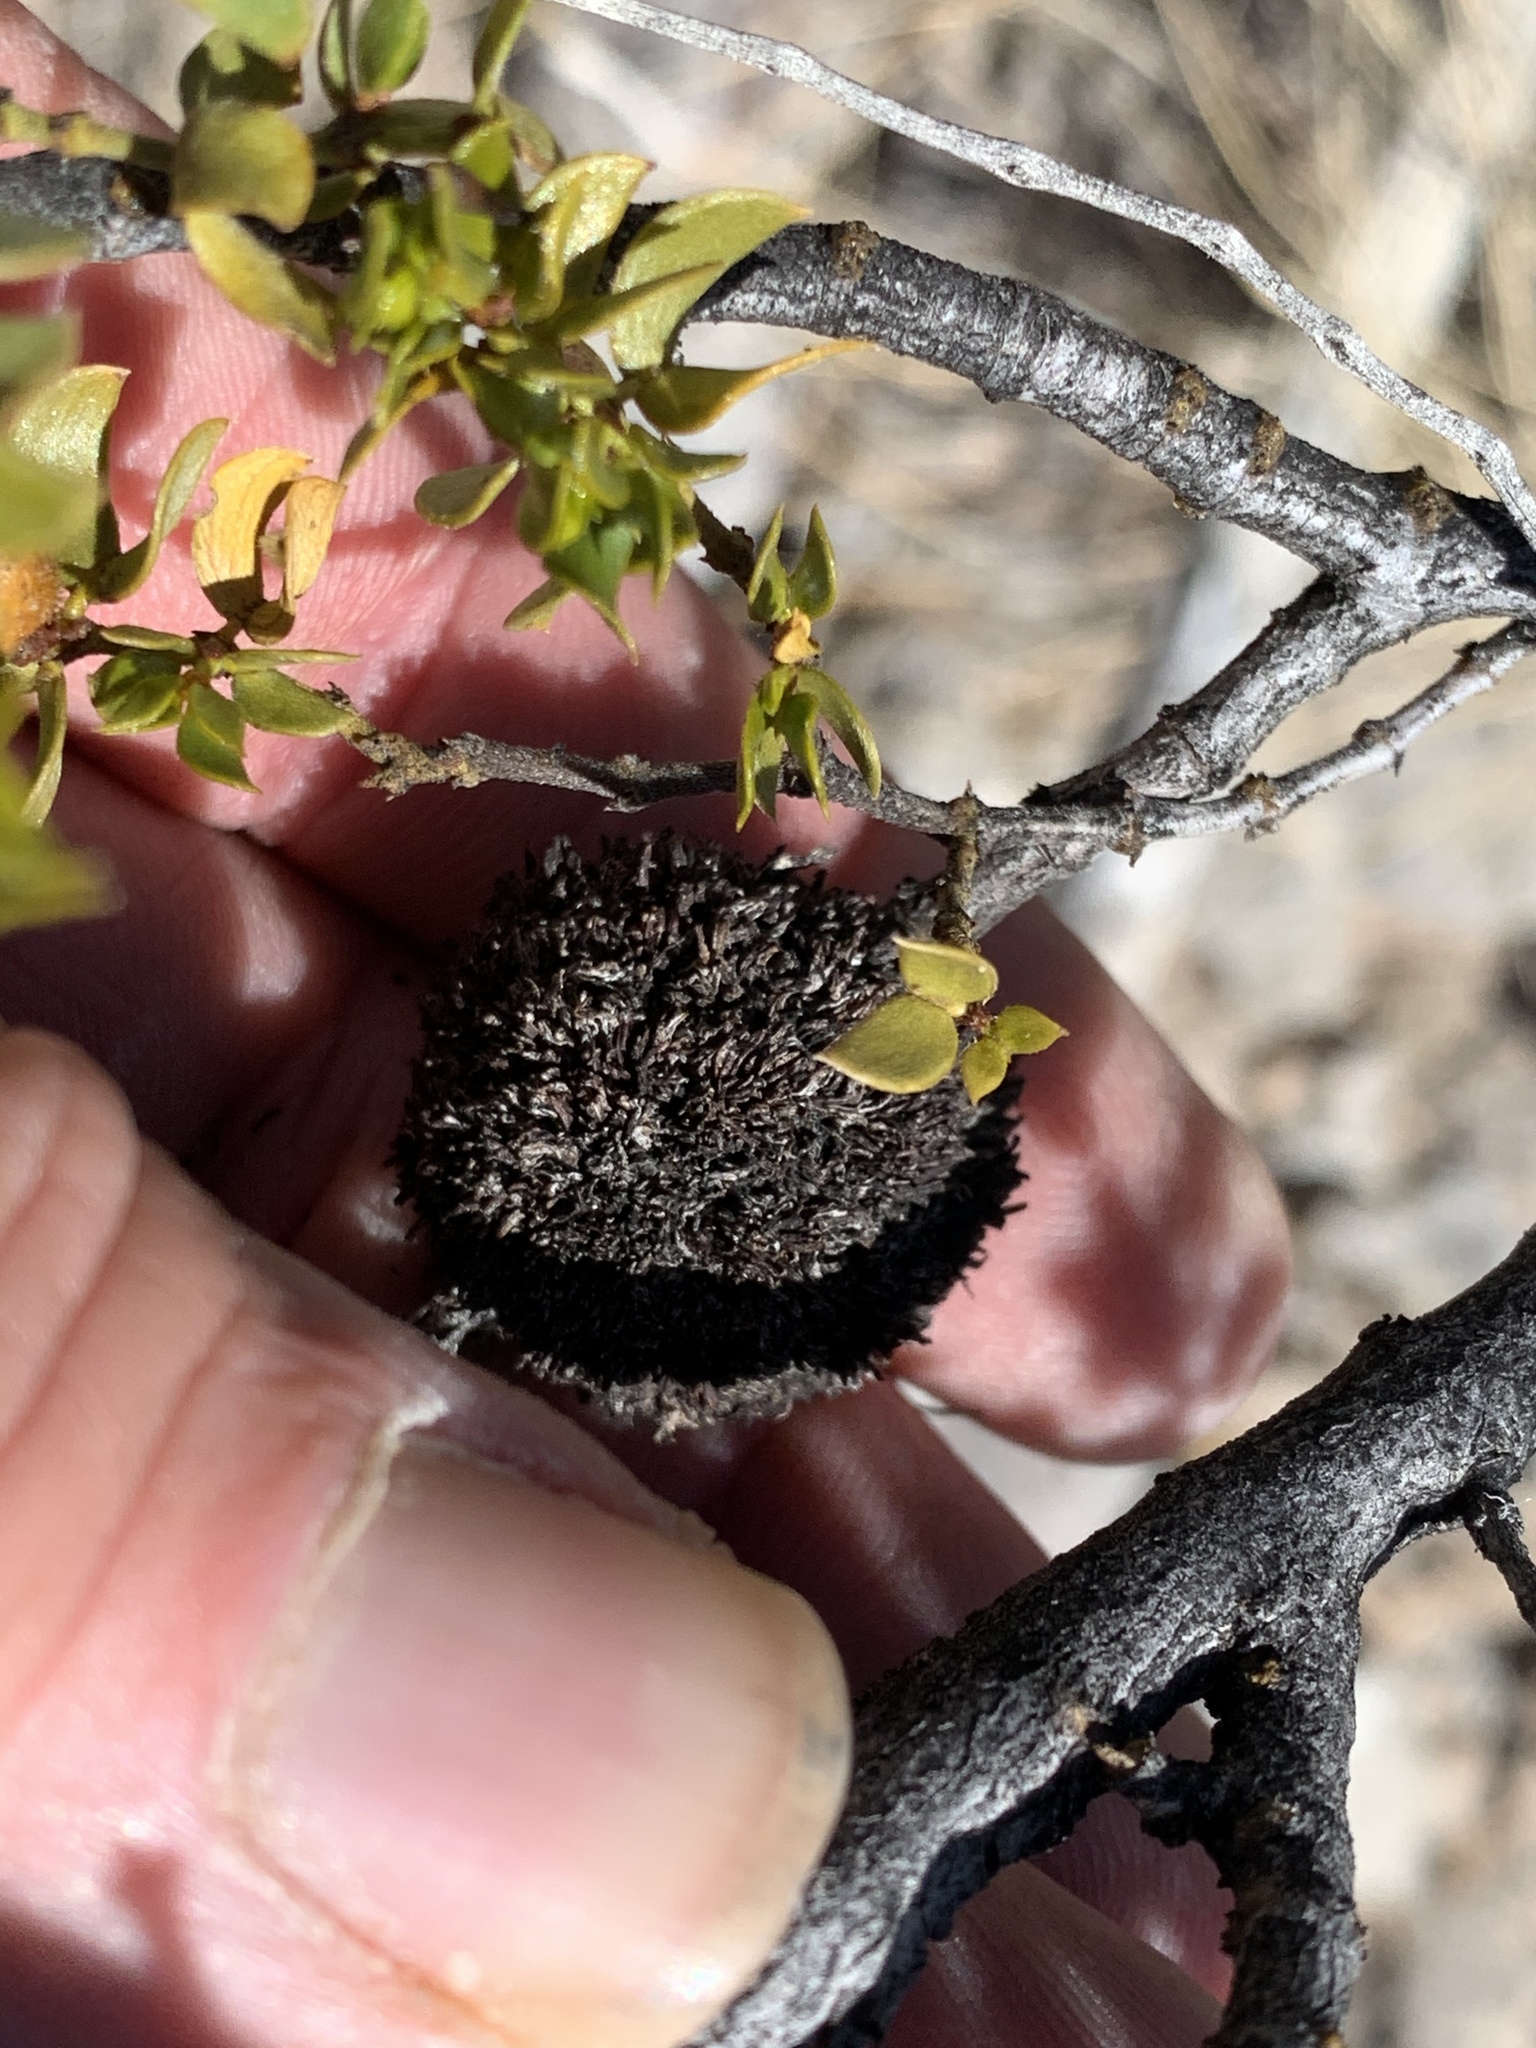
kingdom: Animalia
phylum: Arthropoda
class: Insecta
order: Diptera
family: Cecidomyiidae
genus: Asphondylia
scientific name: Asphondylia auripila
